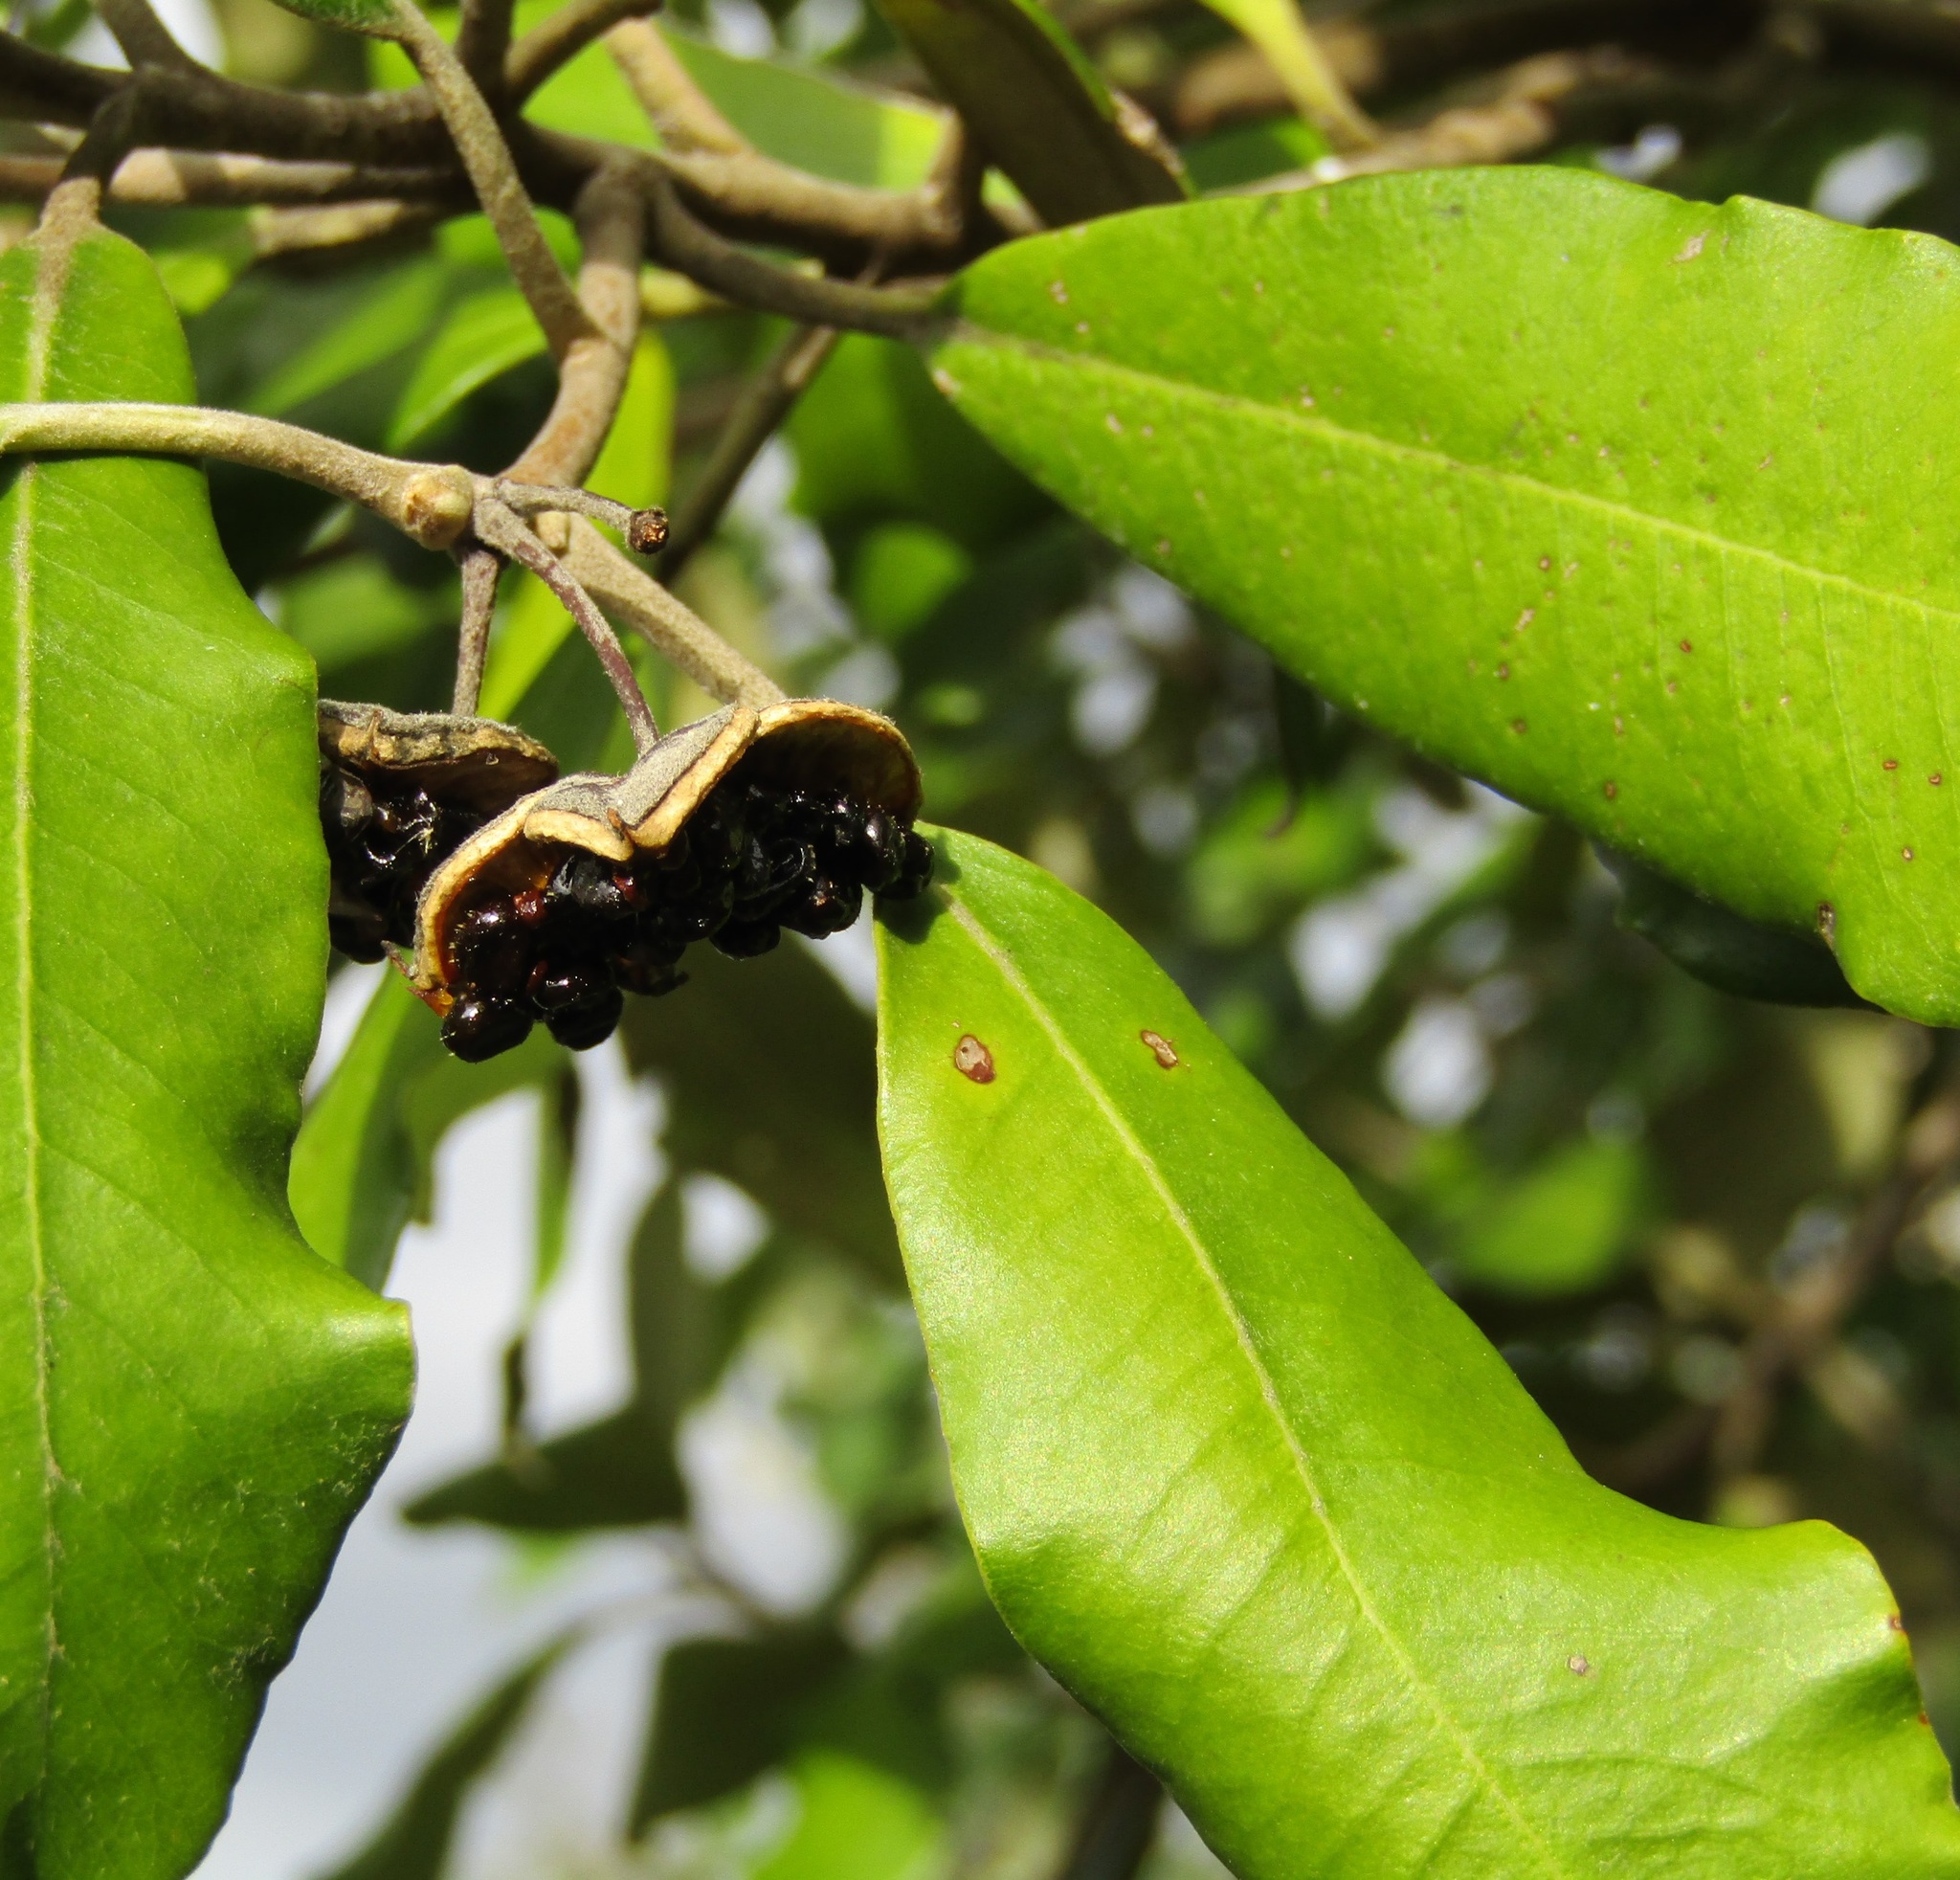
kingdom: Plantae
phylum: Tracheophyta
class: Magnoliopsida
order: Apiales
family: Pittosporaceae
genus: Pittosporum
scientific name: Pittosporum ralphii
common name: Ralph's desertwillow
